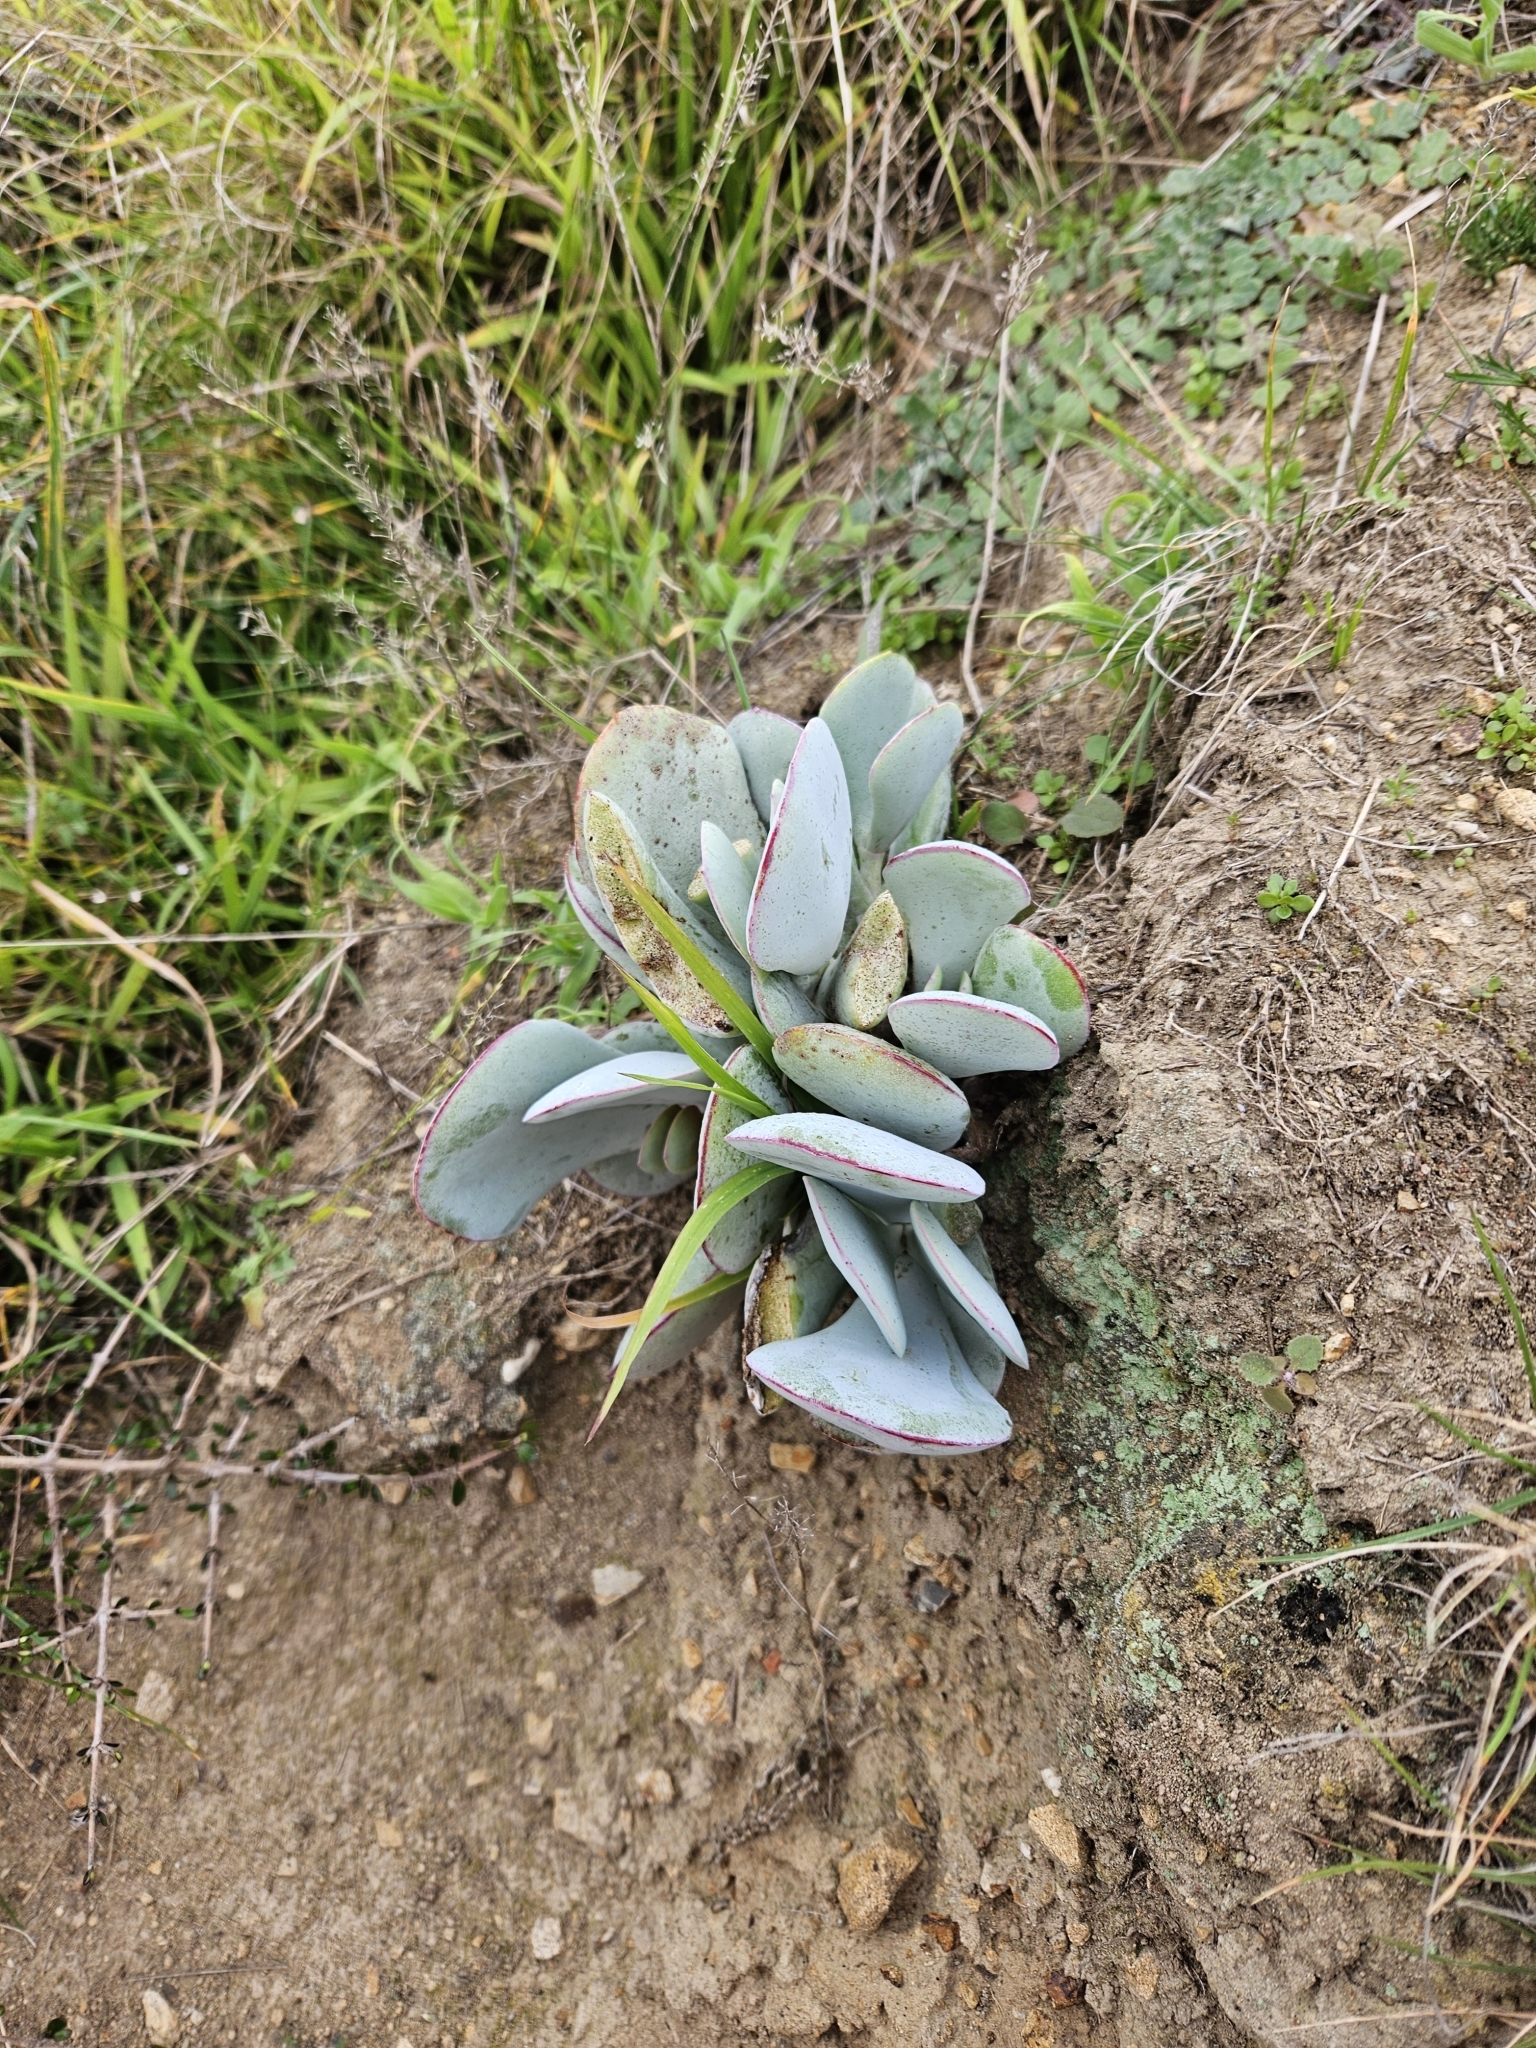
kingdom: Plantae
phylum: Tracheophyta
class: Magnoliopsida
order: Saxifragales
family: Crassulaceae
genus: Cotyledon
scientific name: Cotyledon orbiculata
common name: Pig's ear
